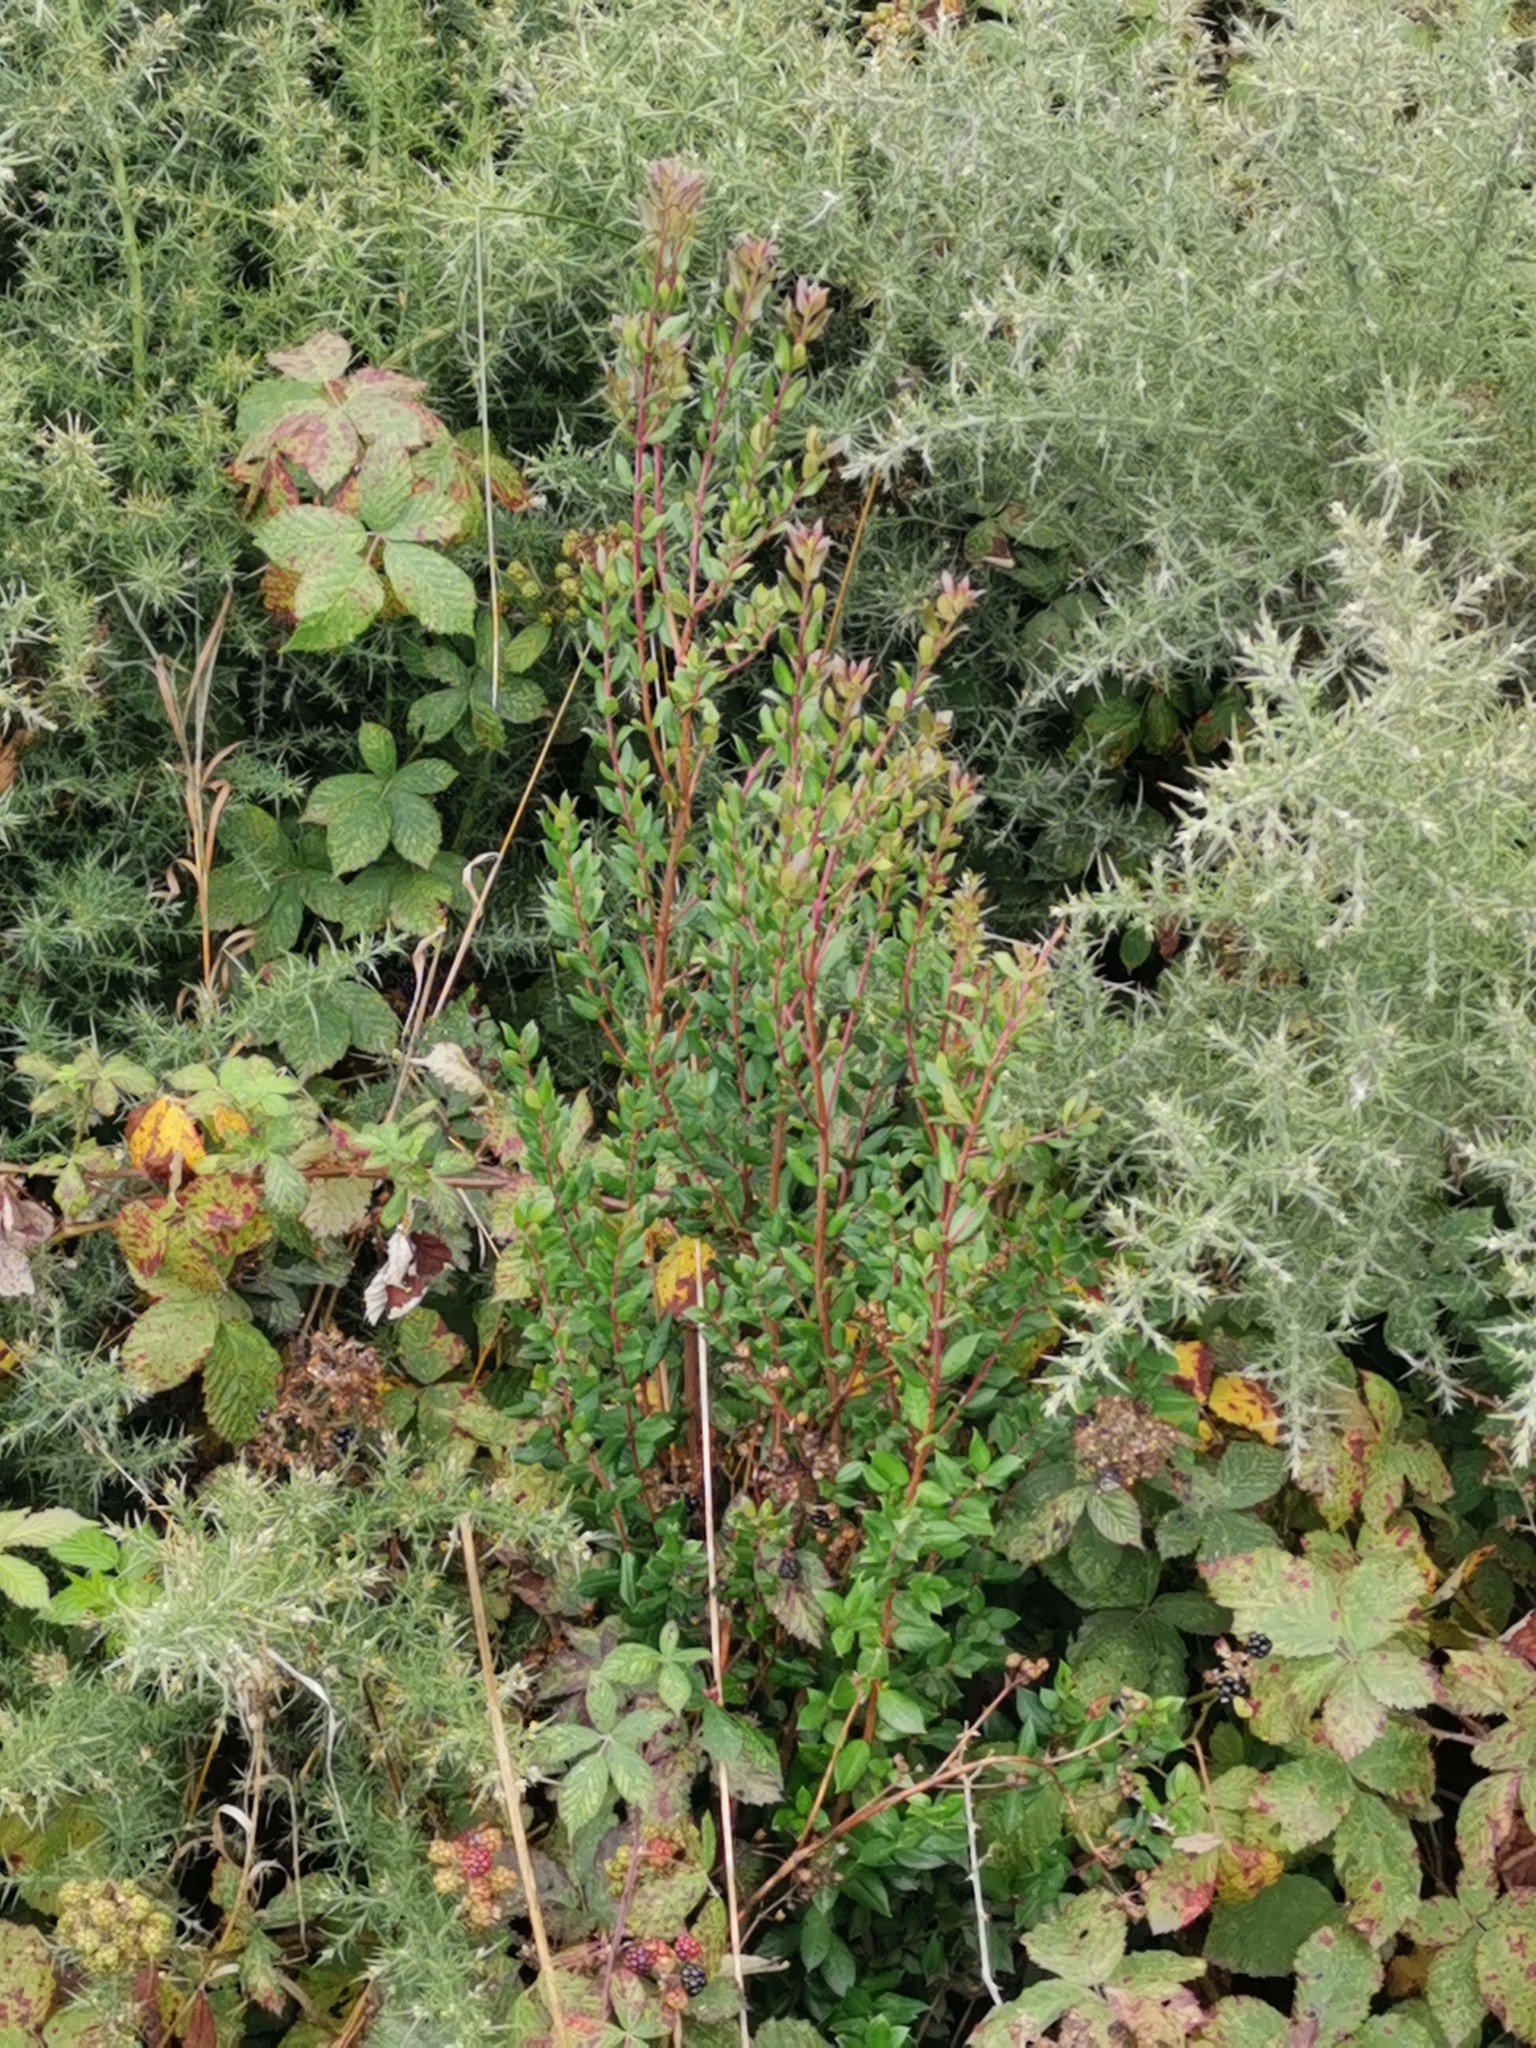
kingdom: Plantae
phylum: Tracheophyta
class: Magnoliopsida
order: Myrtales
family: Myrtaceae
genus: Luma
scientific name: Luma apiculata
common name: Chilean myrtle
